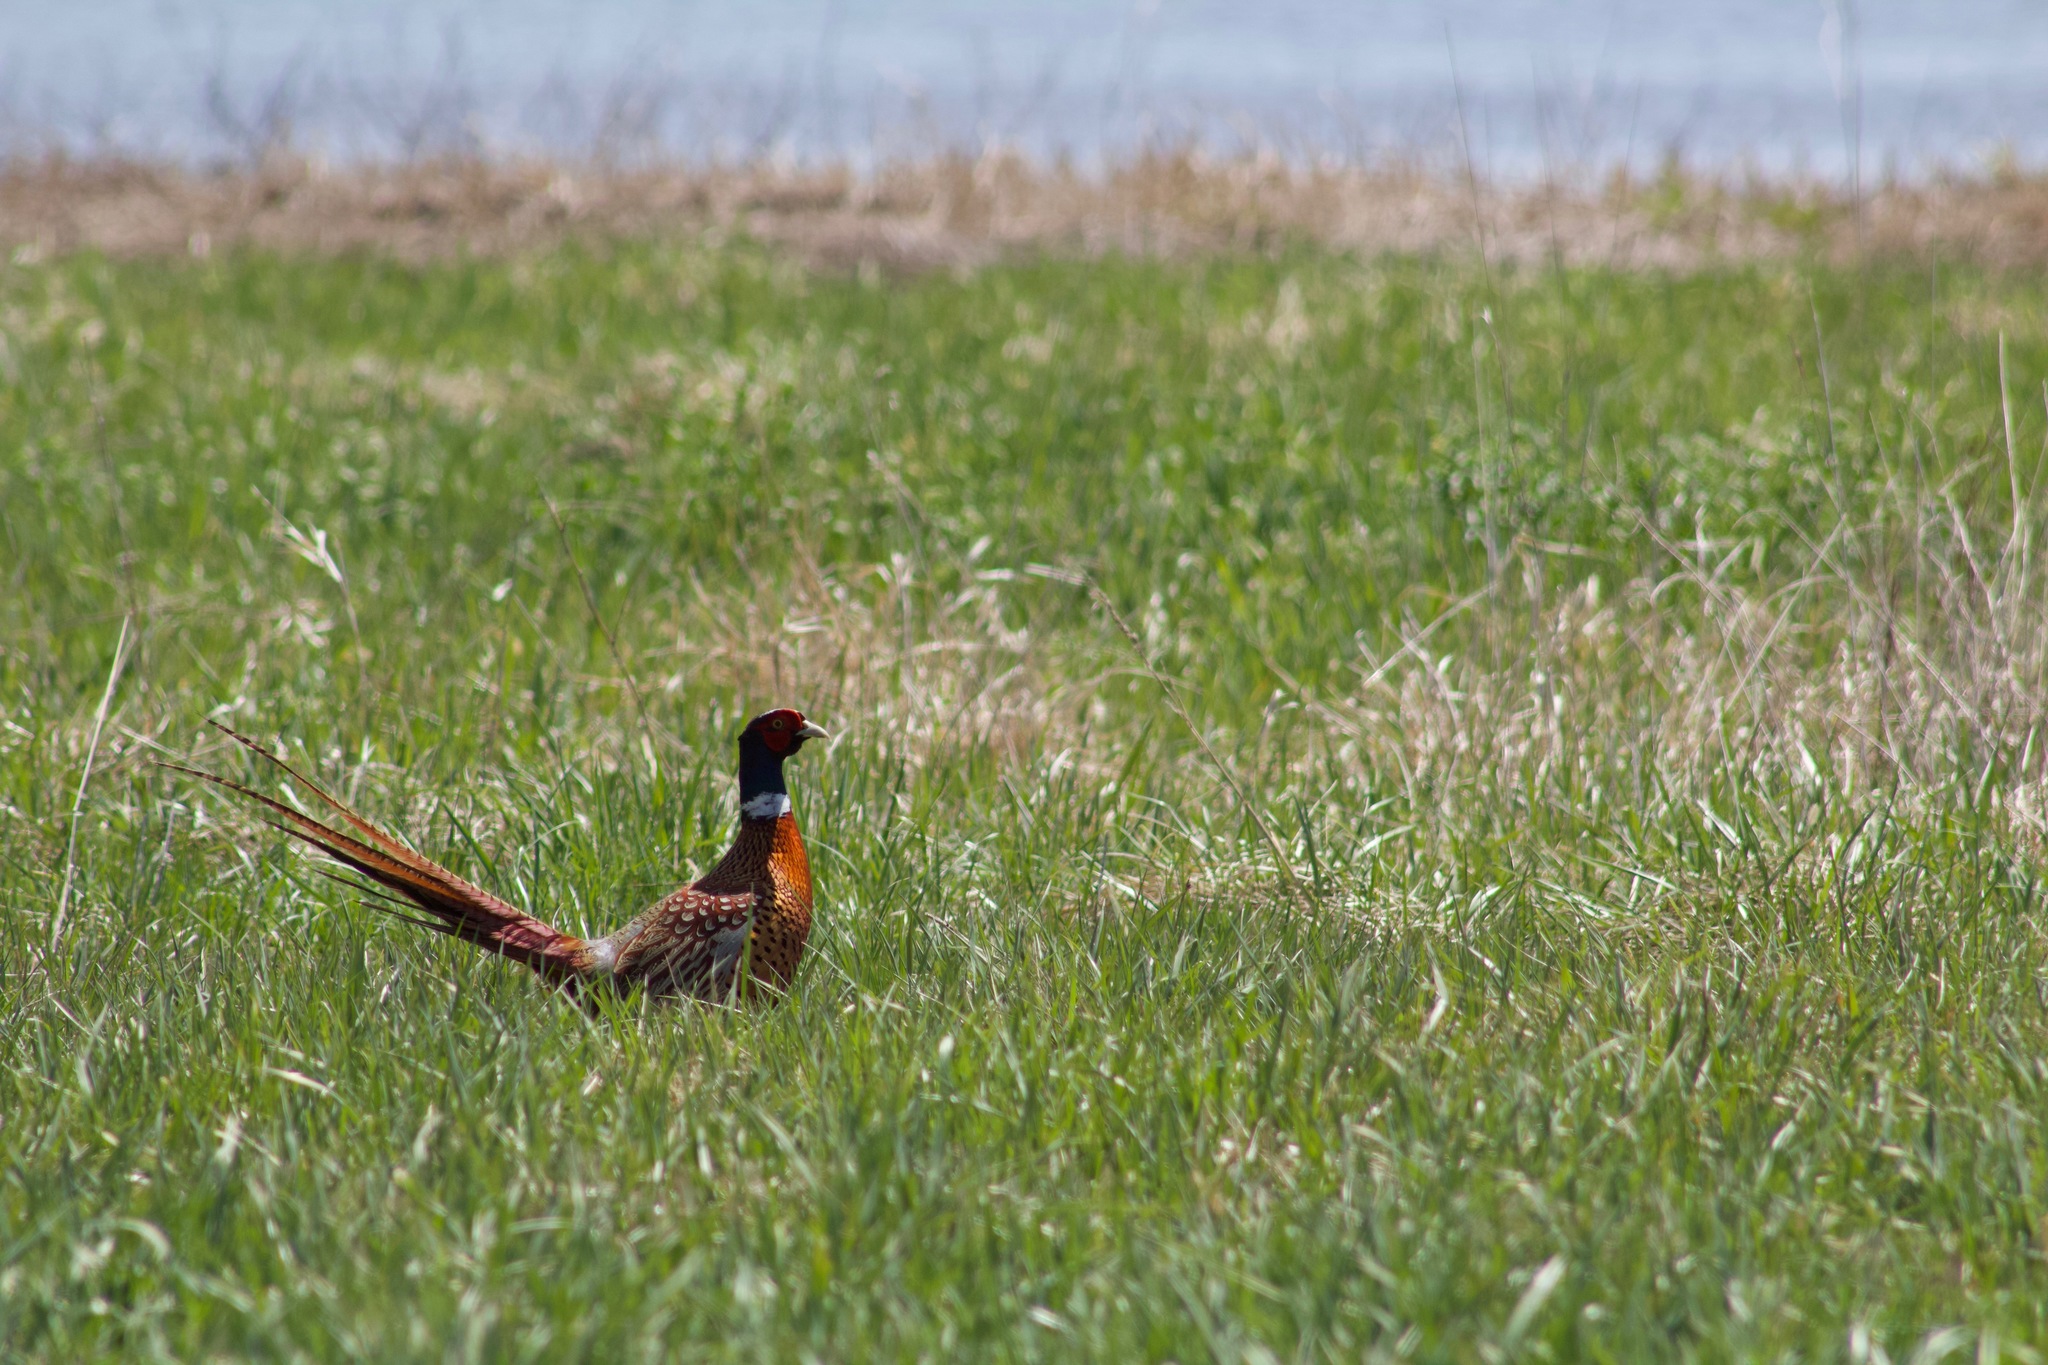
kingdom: Animalia
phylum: Chordata
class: Aves
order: Galliformes
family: Phasianidae
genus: Phasianus
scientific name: Phasianus colchicus
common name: Common pheasant
